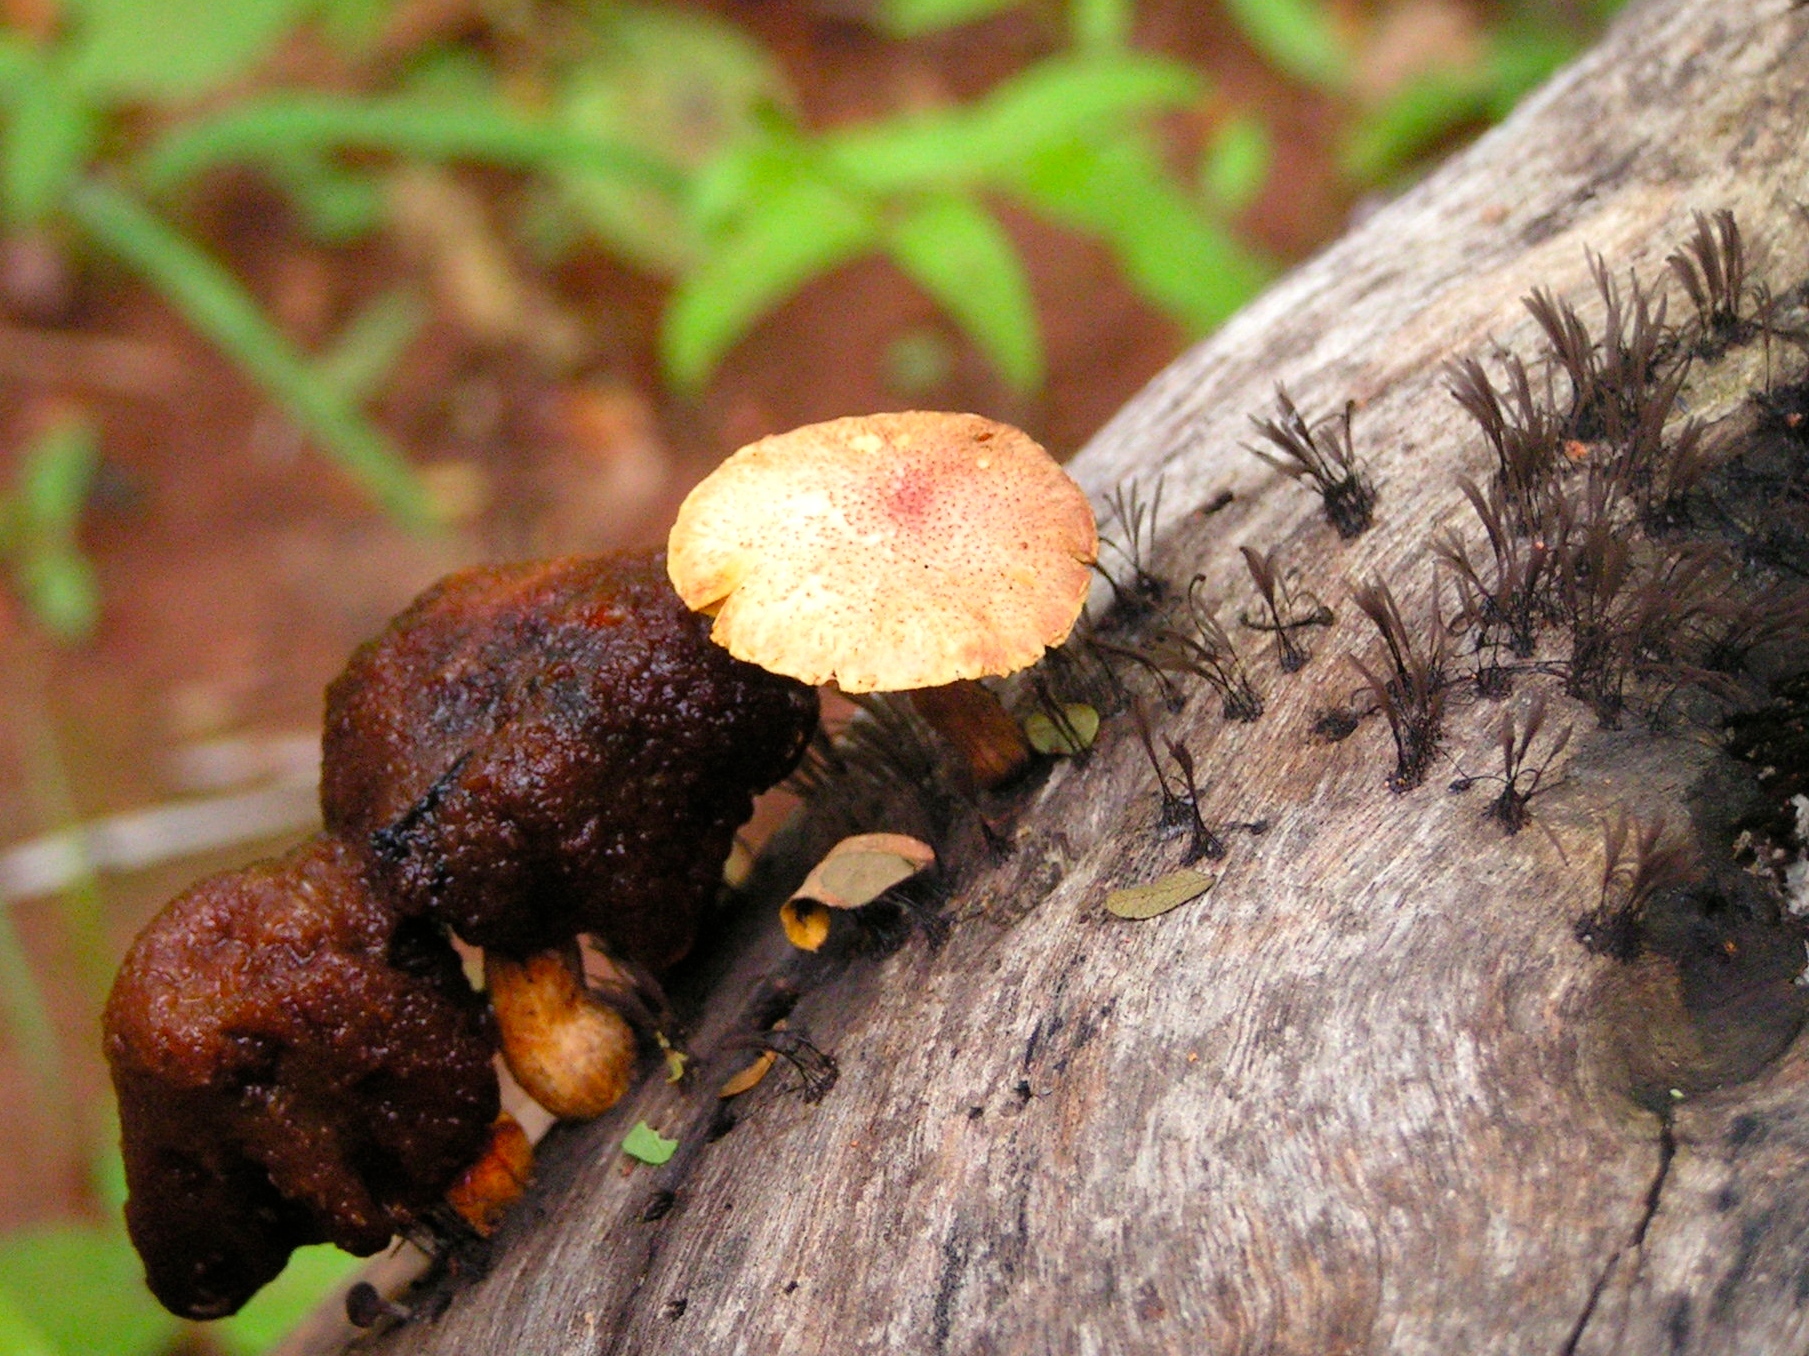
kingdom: Fungi
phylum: Basidiomycota
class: Agaricomycetes
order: Agaricales
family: Hymenogastraceae
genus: Gymnopilus
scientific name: Gymnopilus
